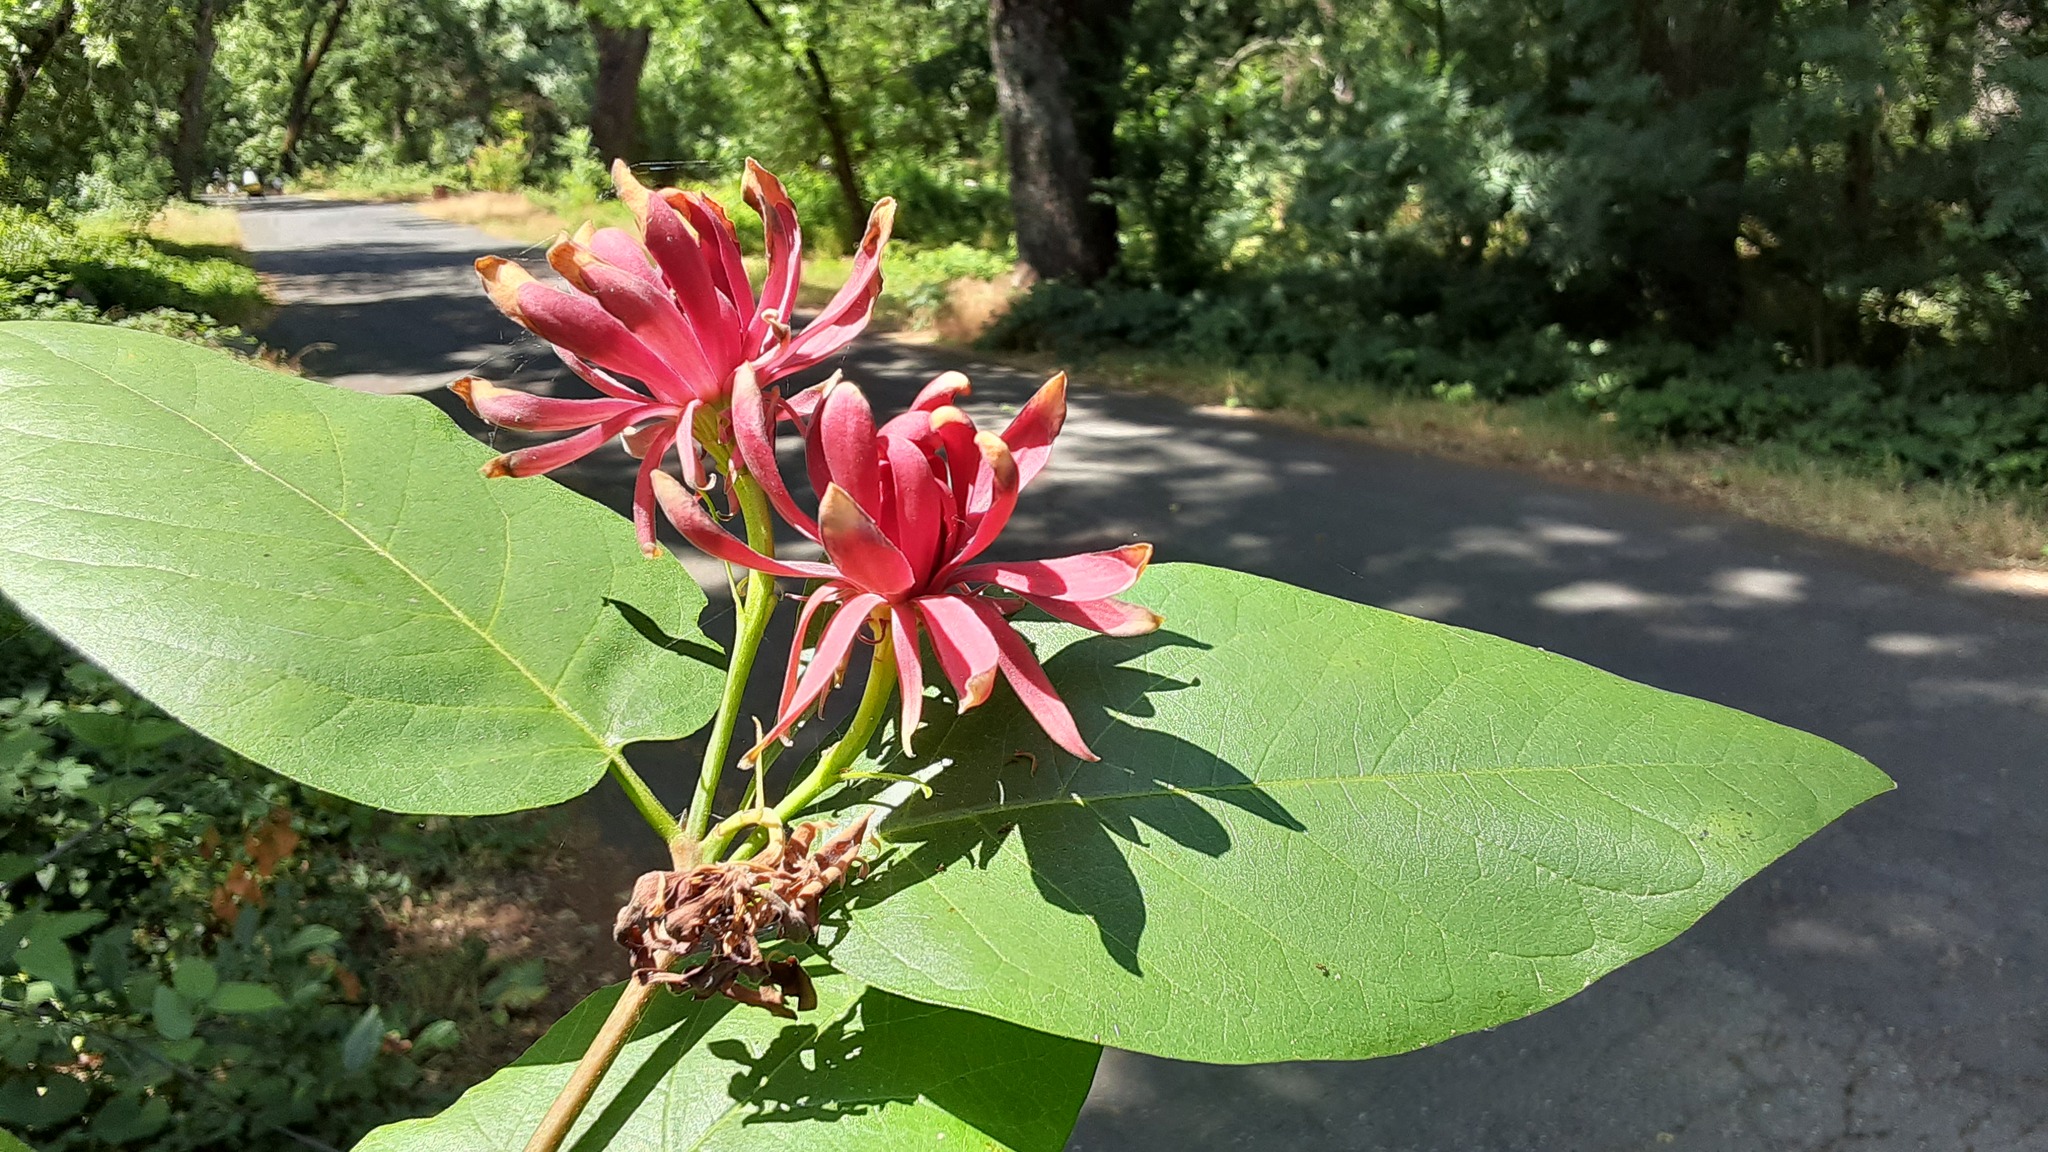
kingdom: Plantae
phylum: Tracheophyta
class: Magnoliopsida
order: Laurales
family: Calycanthaceae
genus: Calycanthus
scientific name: Calycanthus occidentalis
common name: California spicebush
